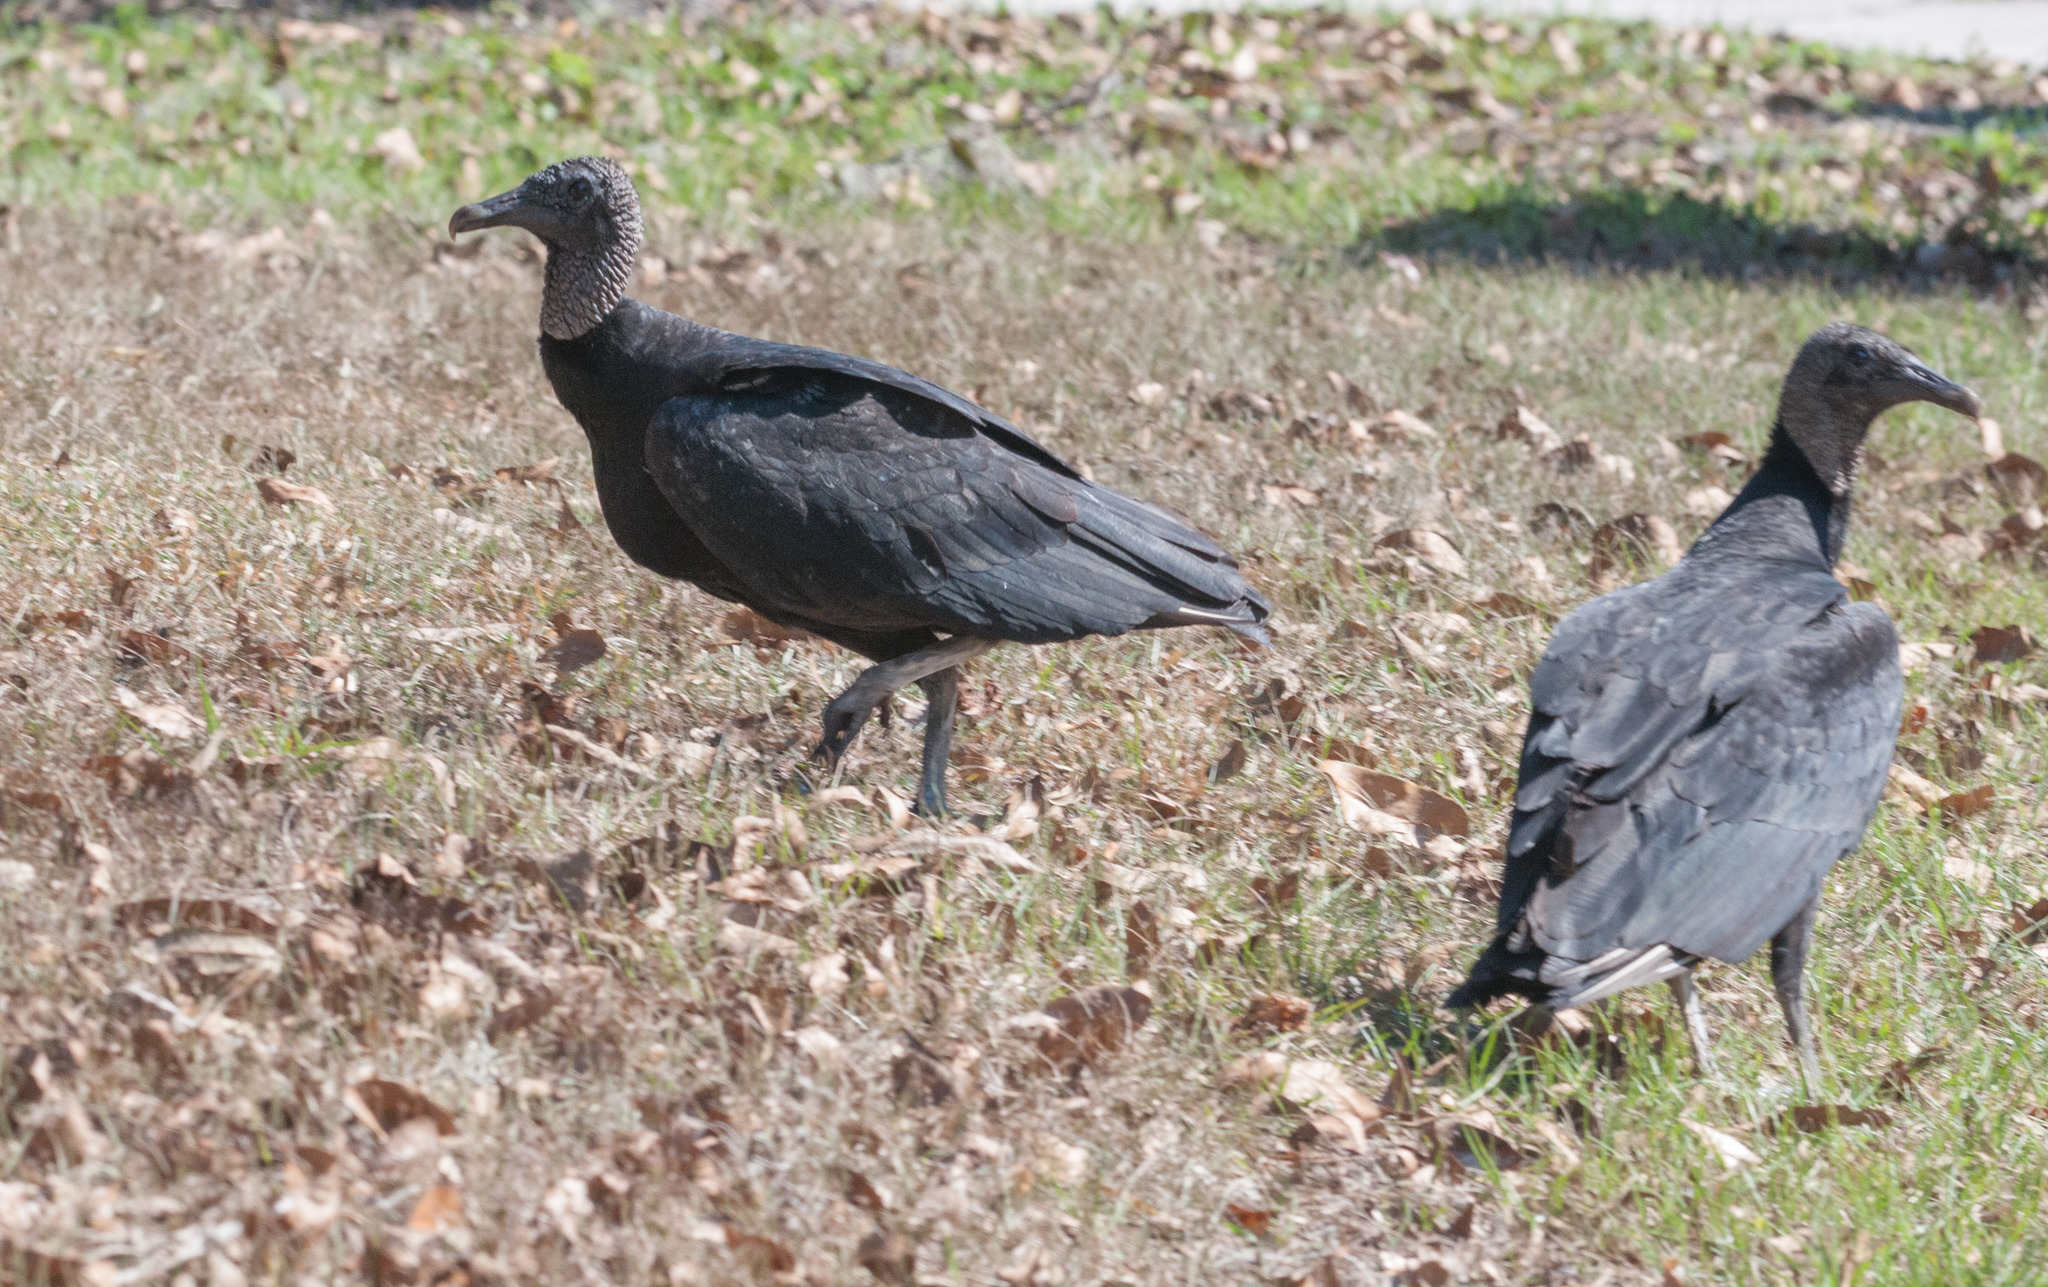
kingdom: Animalia
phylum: Chordata
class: Aves
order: Accipitriformes
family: Cathartidae
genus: Coragyps
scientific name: Coragyps atratus
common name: Black vulture
